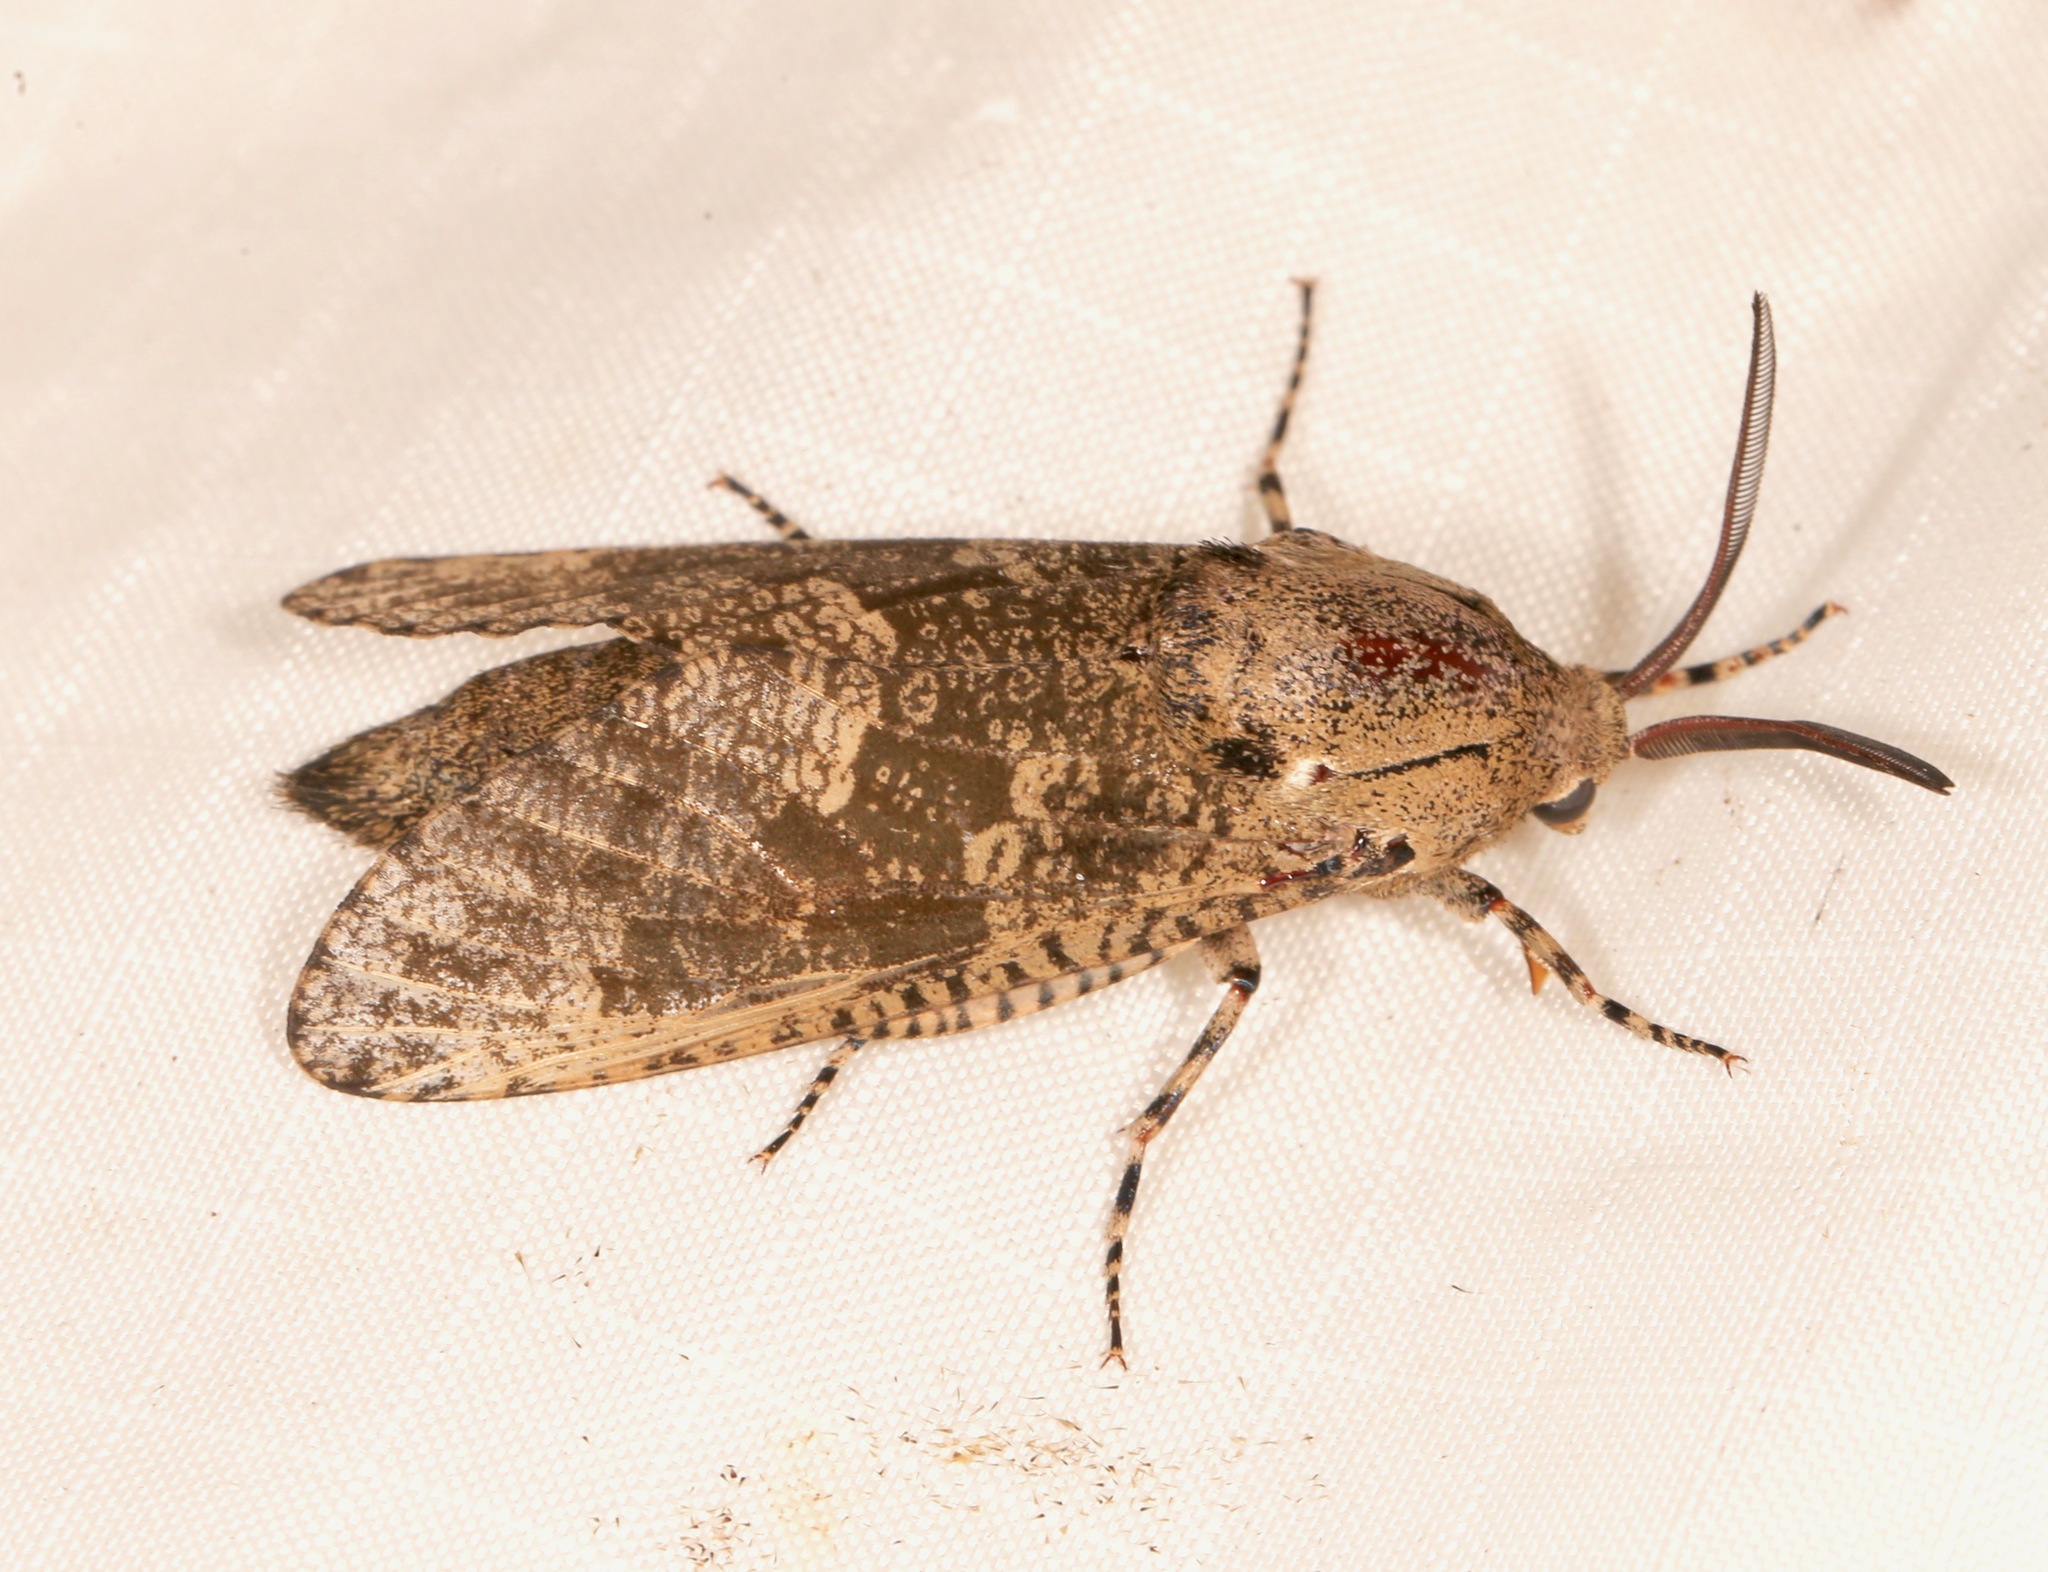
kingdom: Animalia
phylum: Arthropoda
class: Insecta
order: Lepidoptera
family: Cossidae
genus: Prionoxystus
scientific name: Prionoxystus robiniae
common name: Carpenterworm
